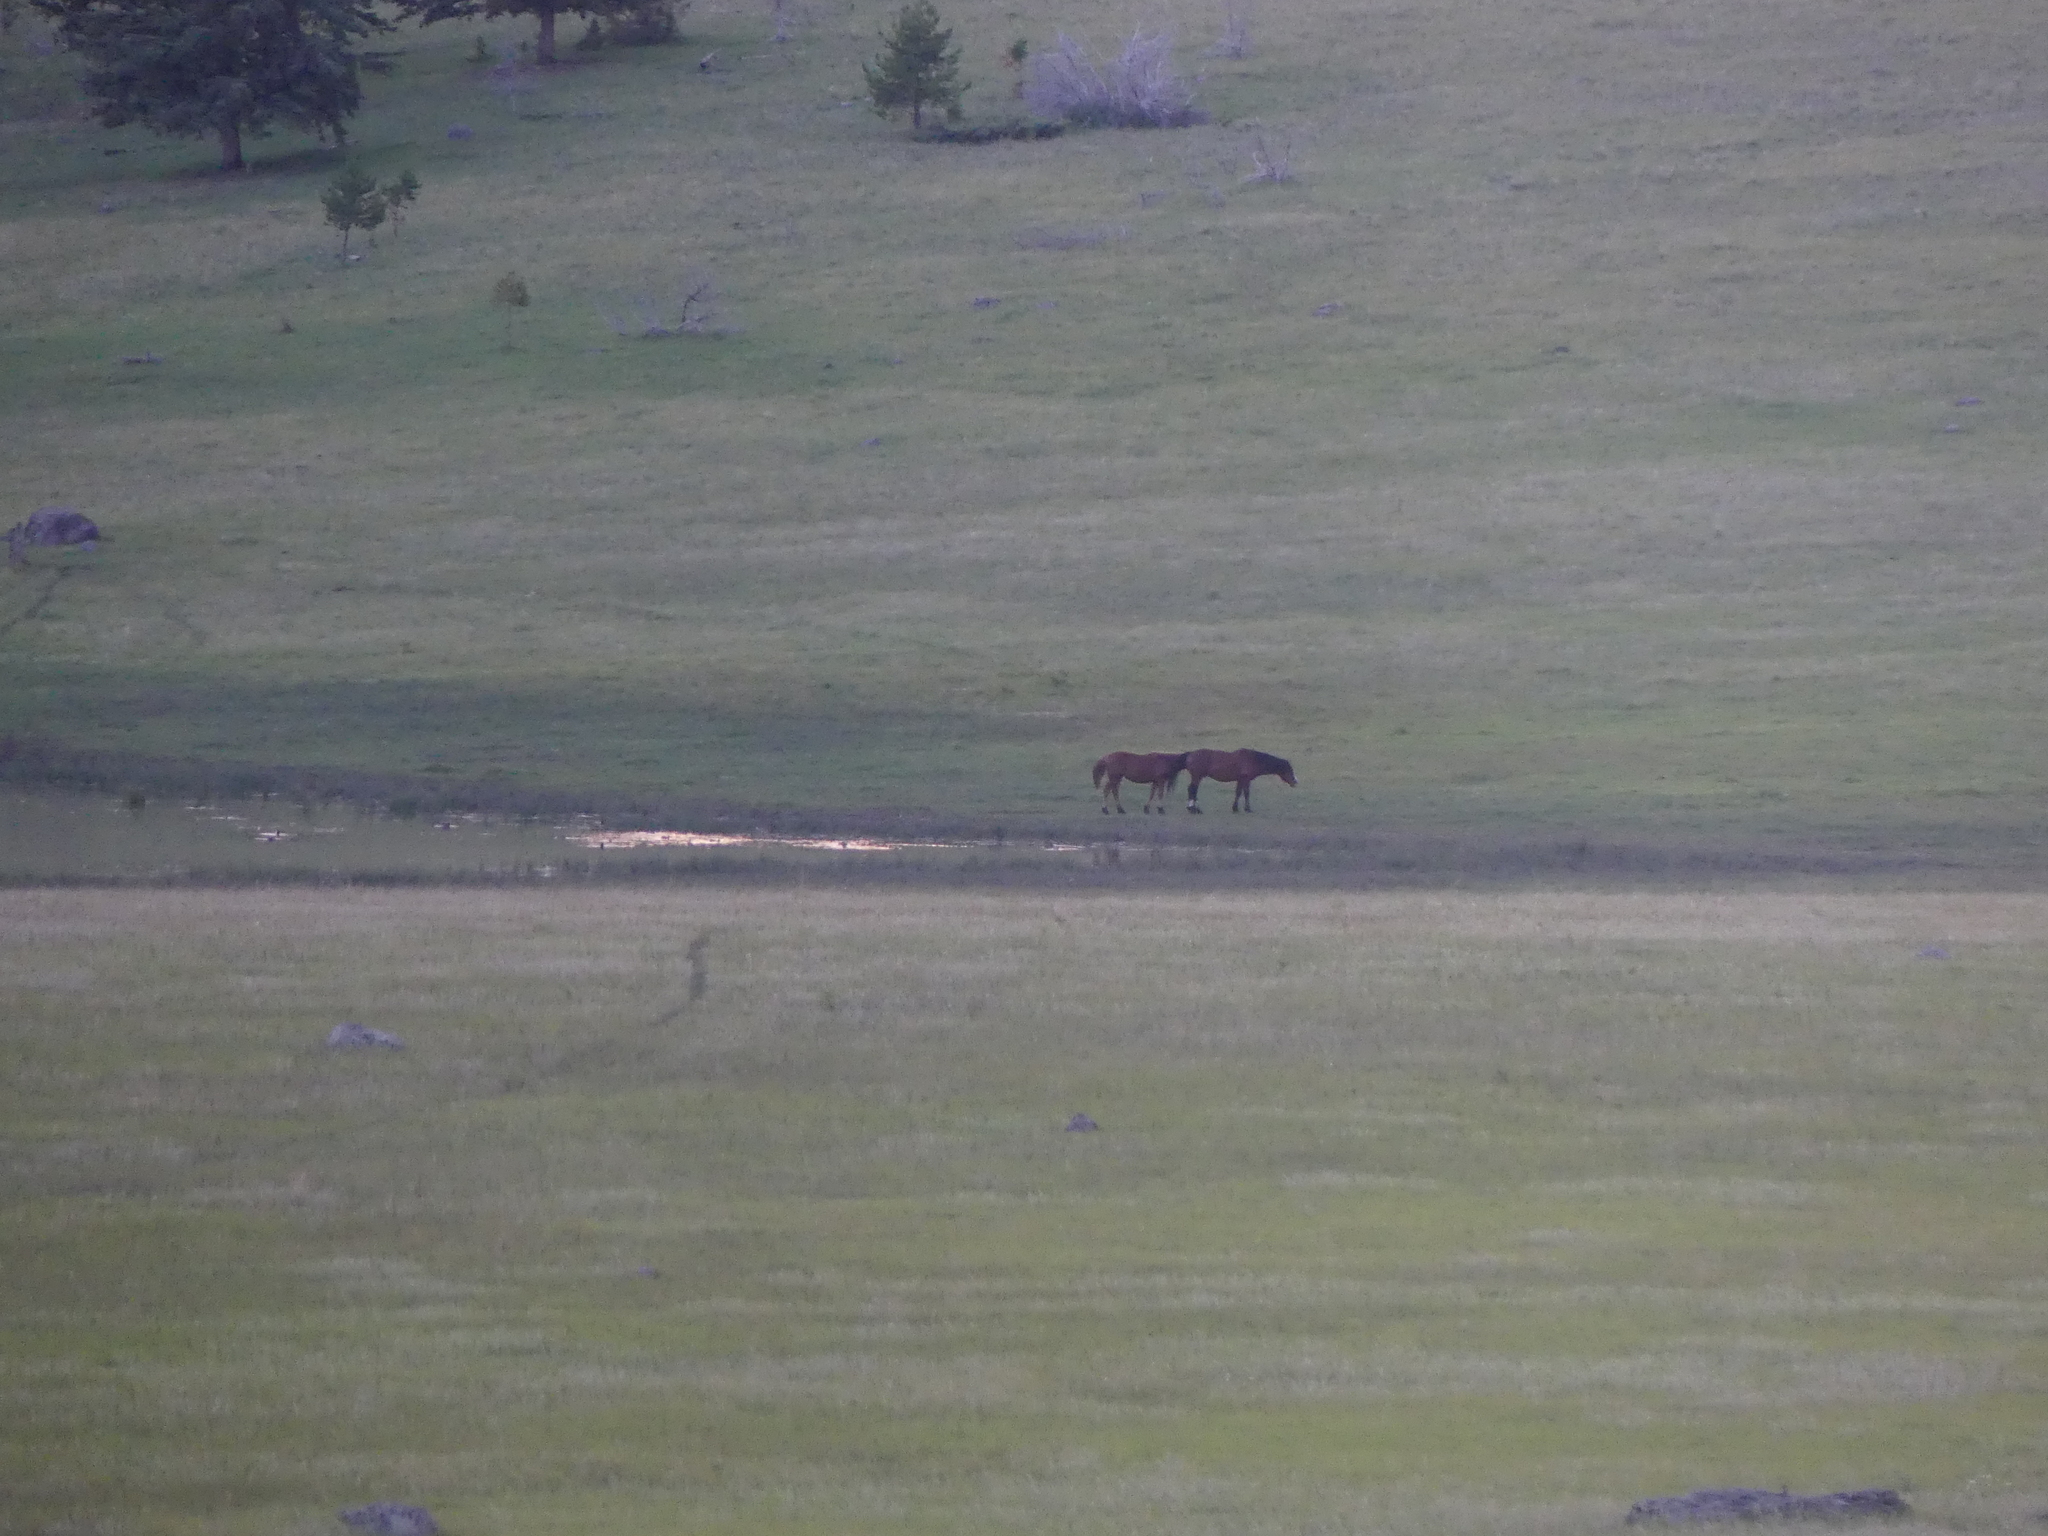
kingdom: Animalia
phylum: Chordata
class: Mammalia
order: Perissodactyla
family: Equidae
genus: Equus
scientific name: Equus caballus
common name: Horse
